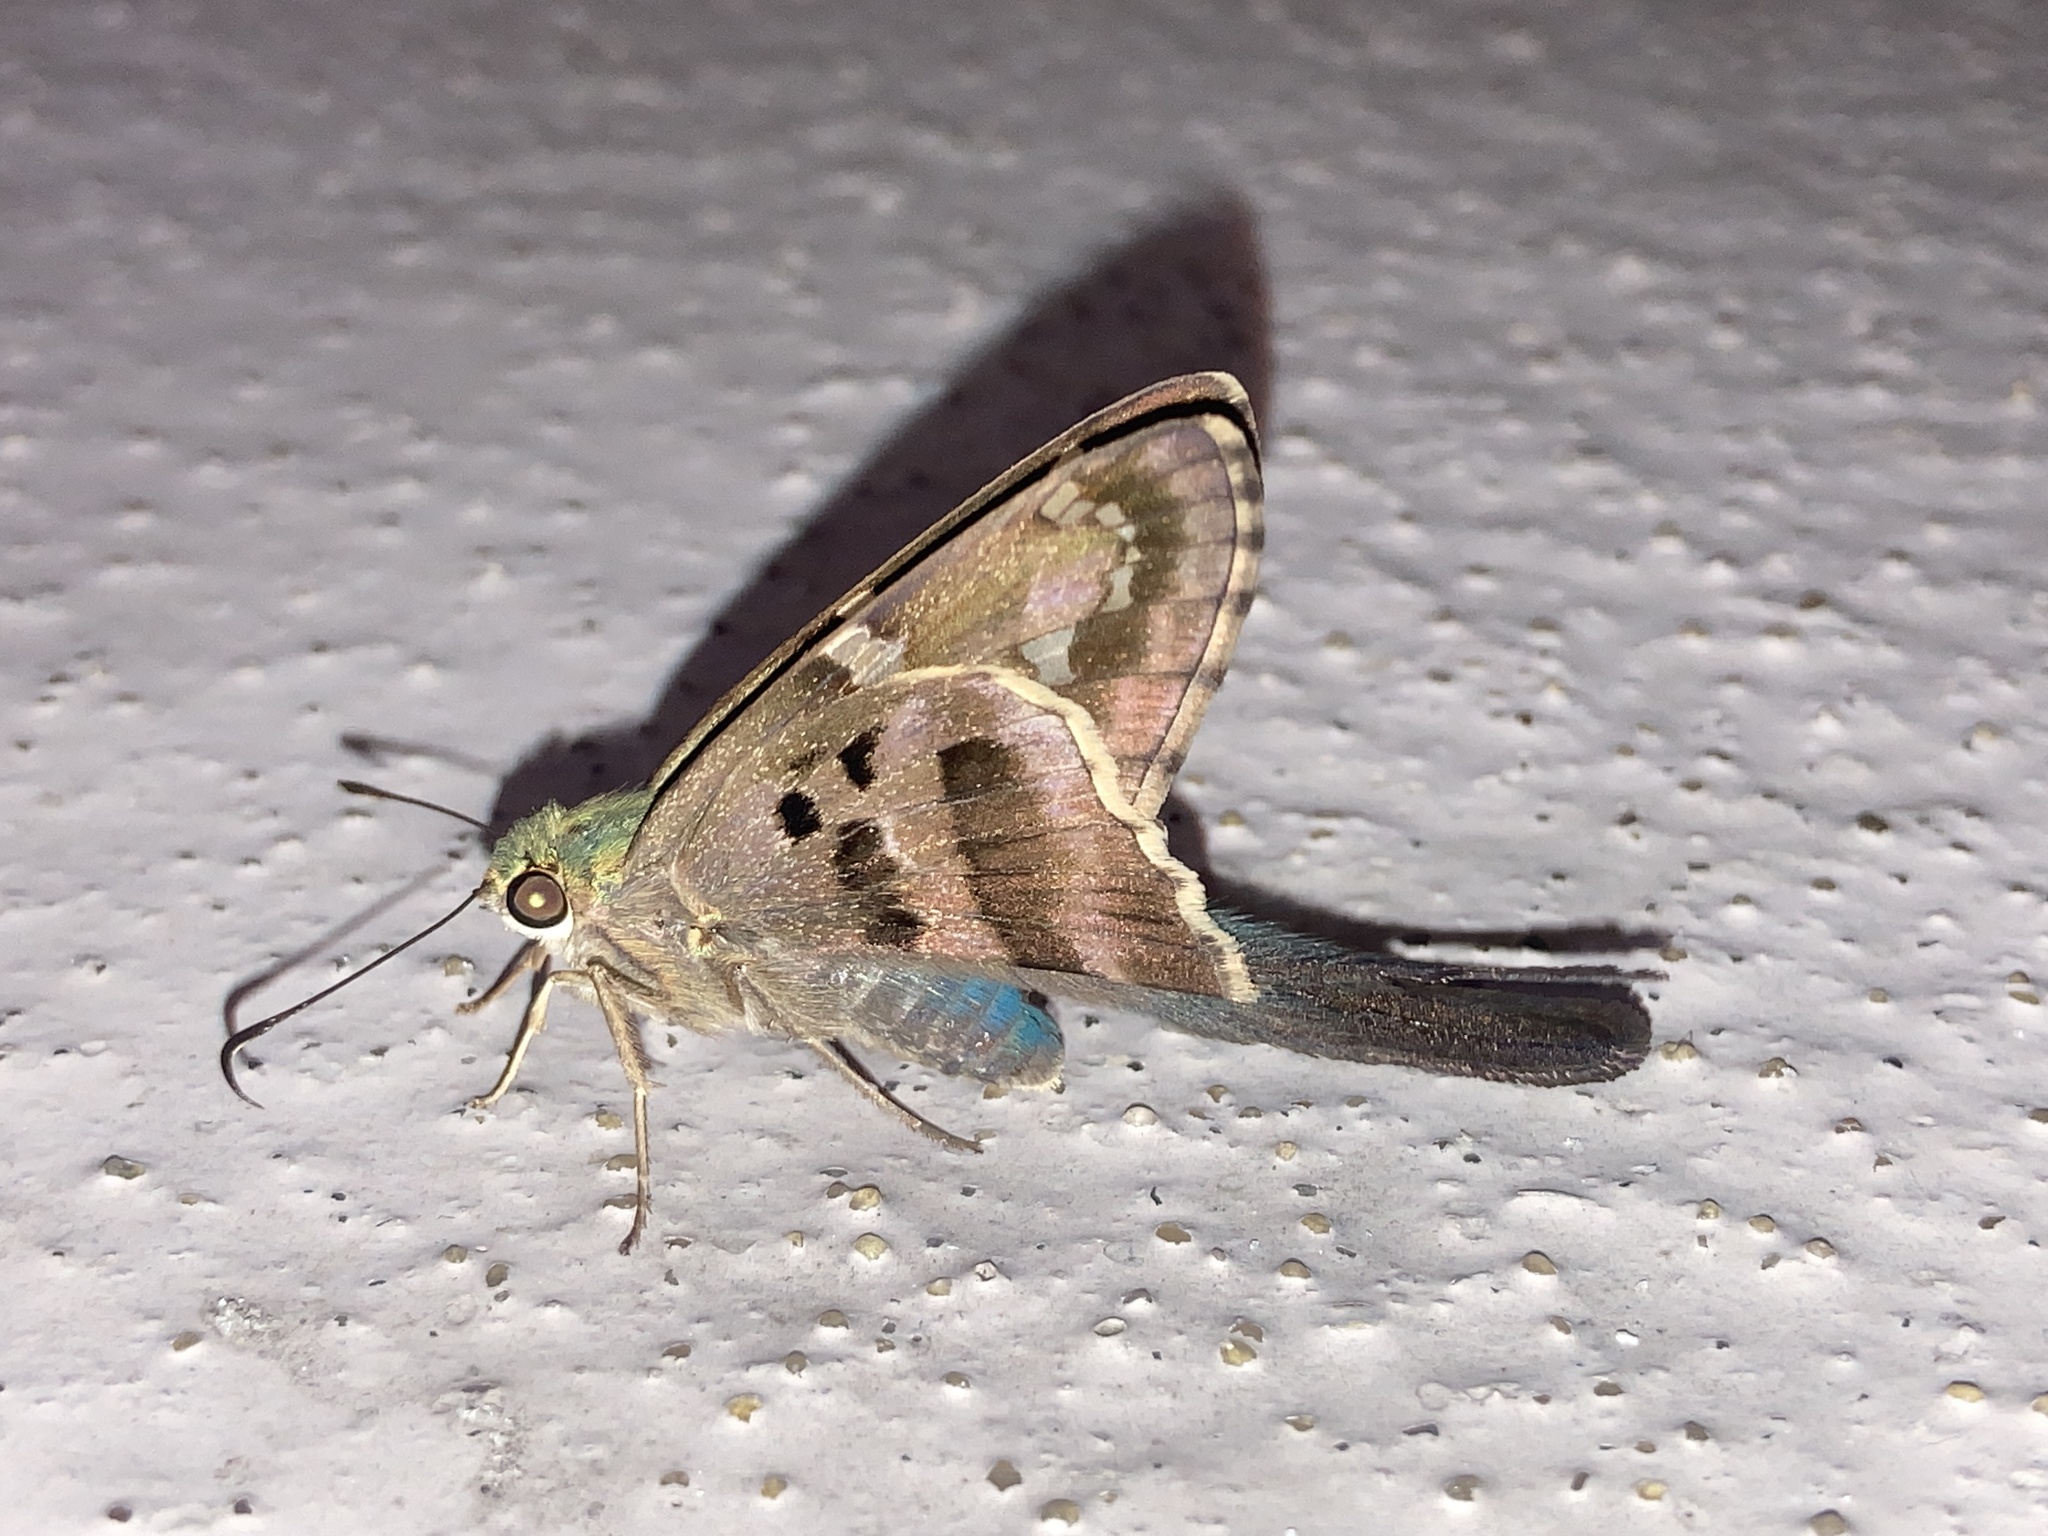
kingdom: Animalia
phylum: Arthropoda
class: Insecta
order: Lepidoptera
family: Hesperiidae
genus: Urbanus
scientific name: Urbanus proteus
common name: Long-tailed skipper
